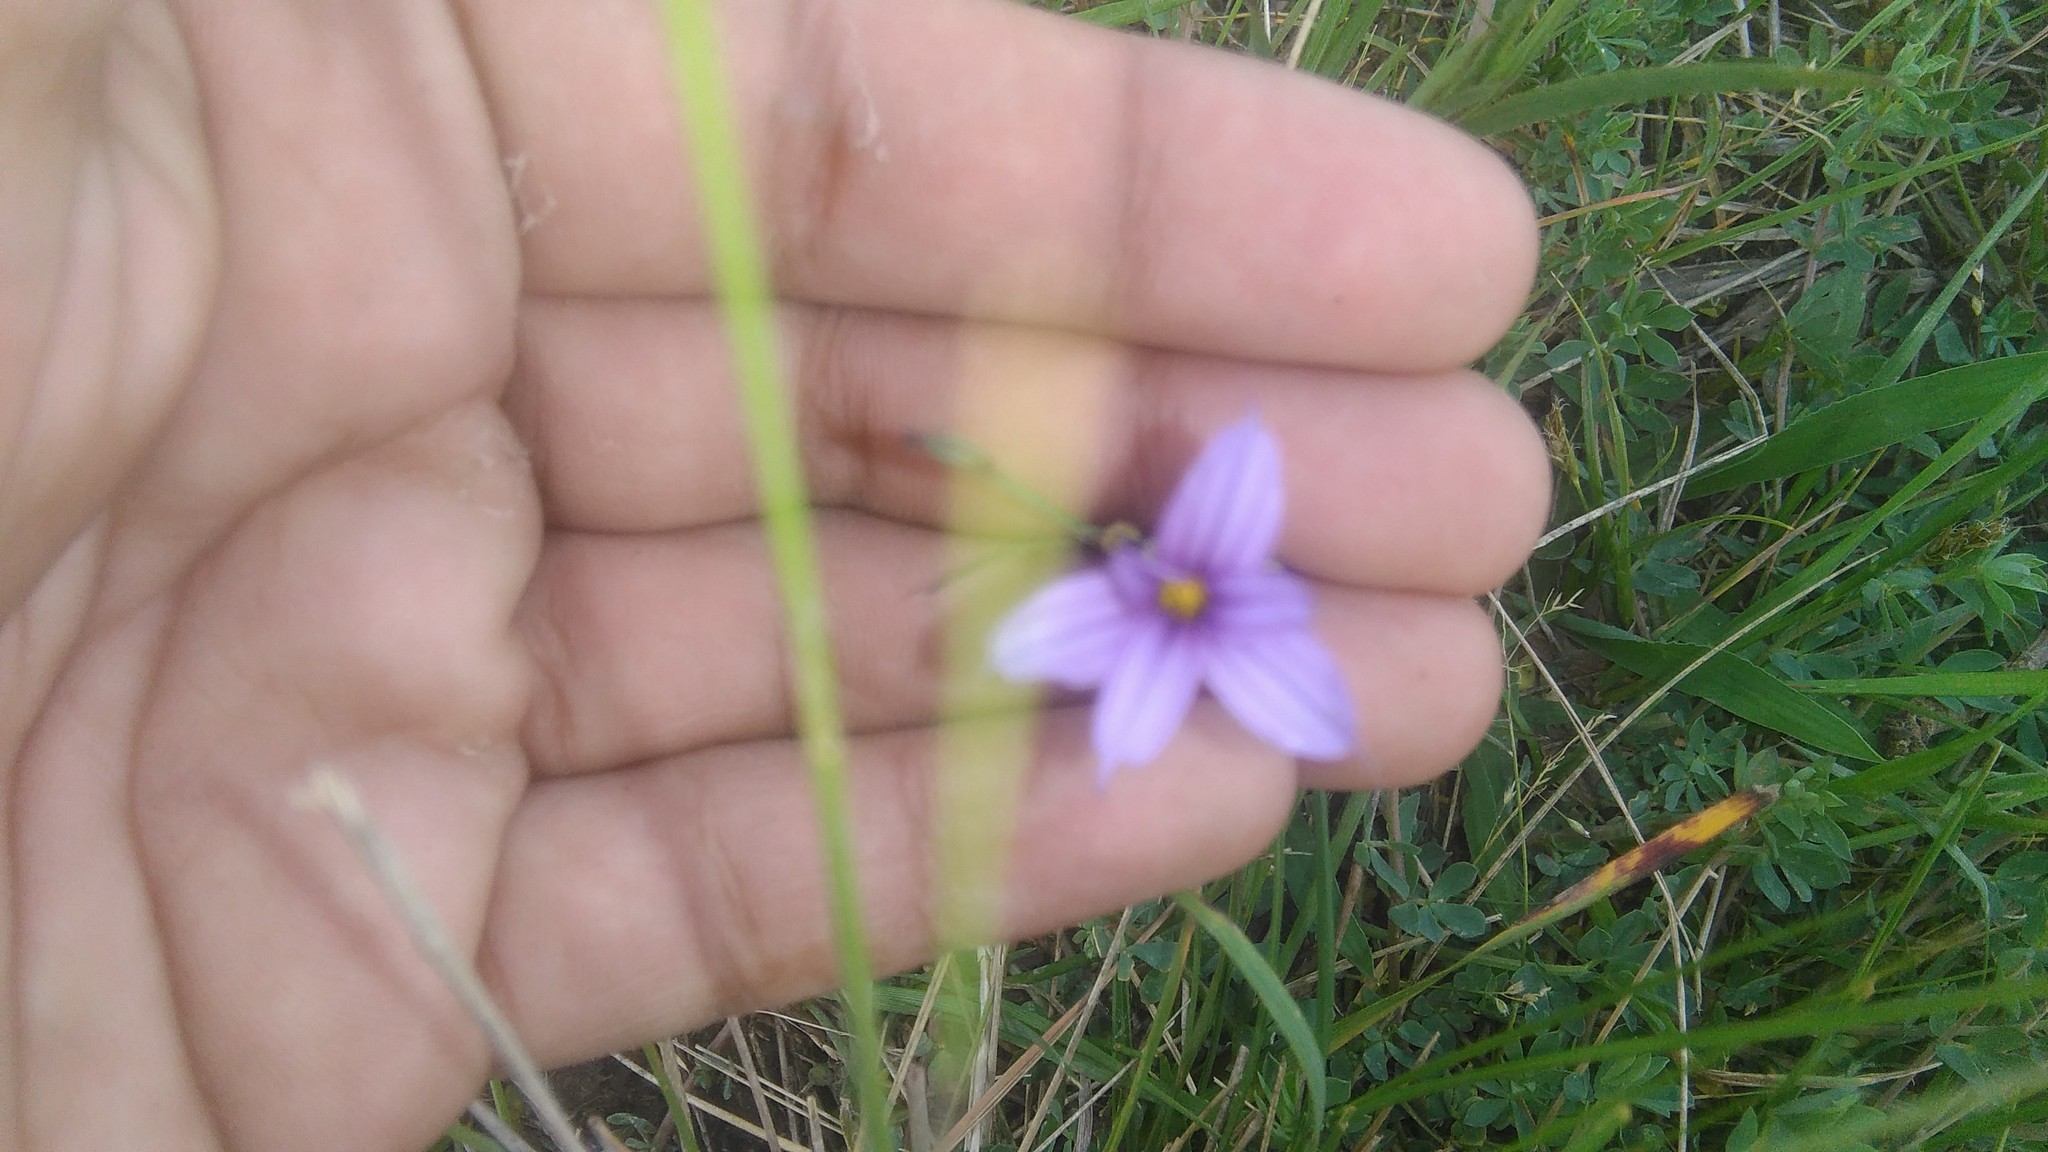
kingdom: Plantae
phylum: Tracheophyta
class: Liliopsida
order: Asparagales
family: Iridaceae
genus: Sisyrinchium
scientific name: Sisyrinchium platense
